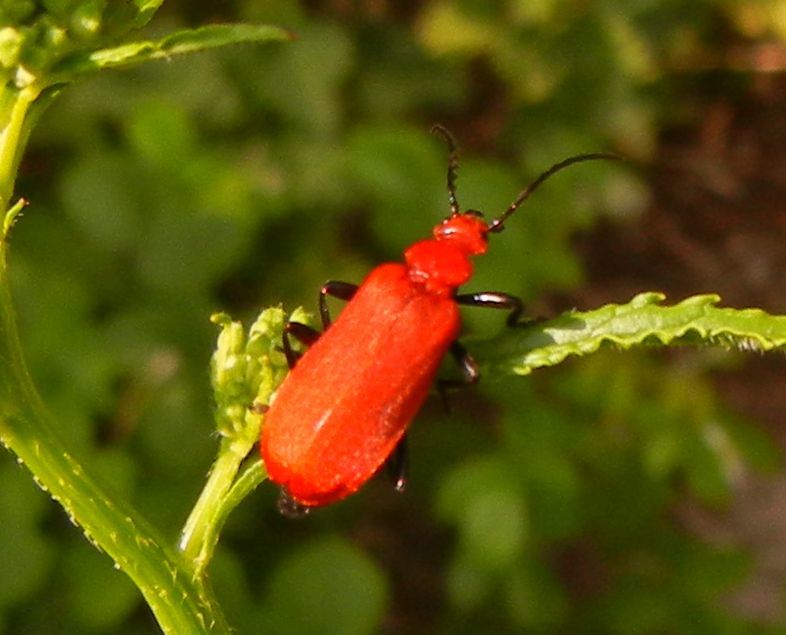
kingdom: Animalia
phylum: Arthropoda
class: Insecta
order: Coleoptera
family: Pyrochroidae
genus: Pyrochroa
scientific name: Pyrochroa serraticornis
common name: Red-headed cardinal beetle
